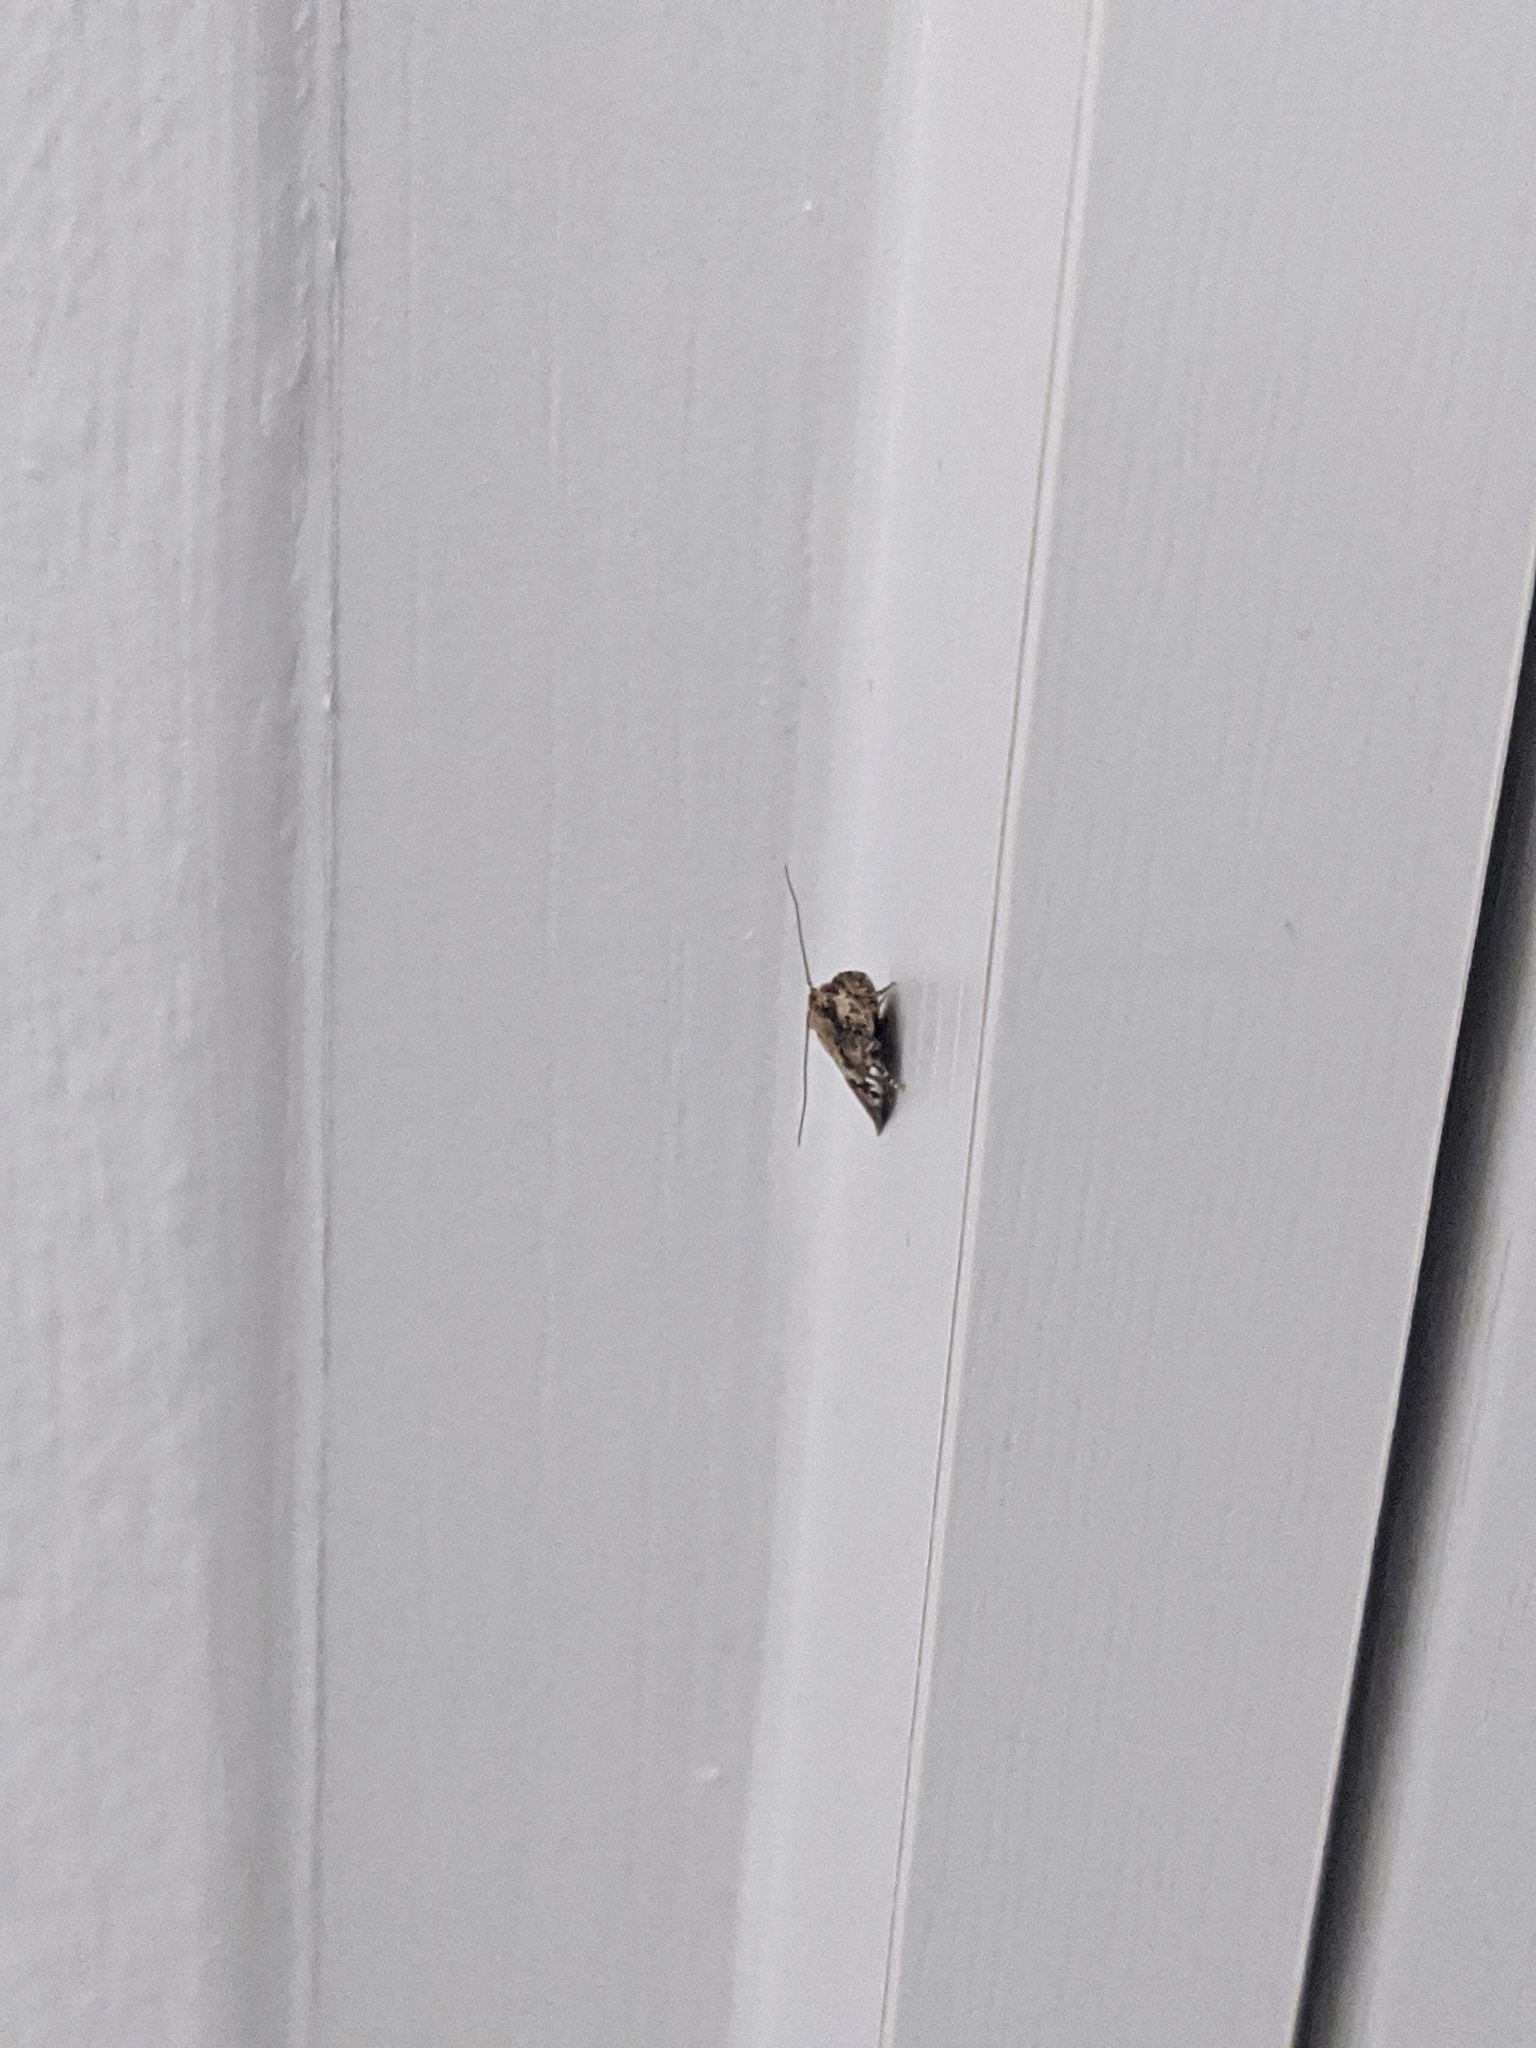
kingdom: Animalia
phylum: Arthropoda
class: Insecta
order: Lepidoptera
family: Tortricidae
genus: Epiphyas
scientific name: Epiphyas postvittana
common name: Light brown apple moth
